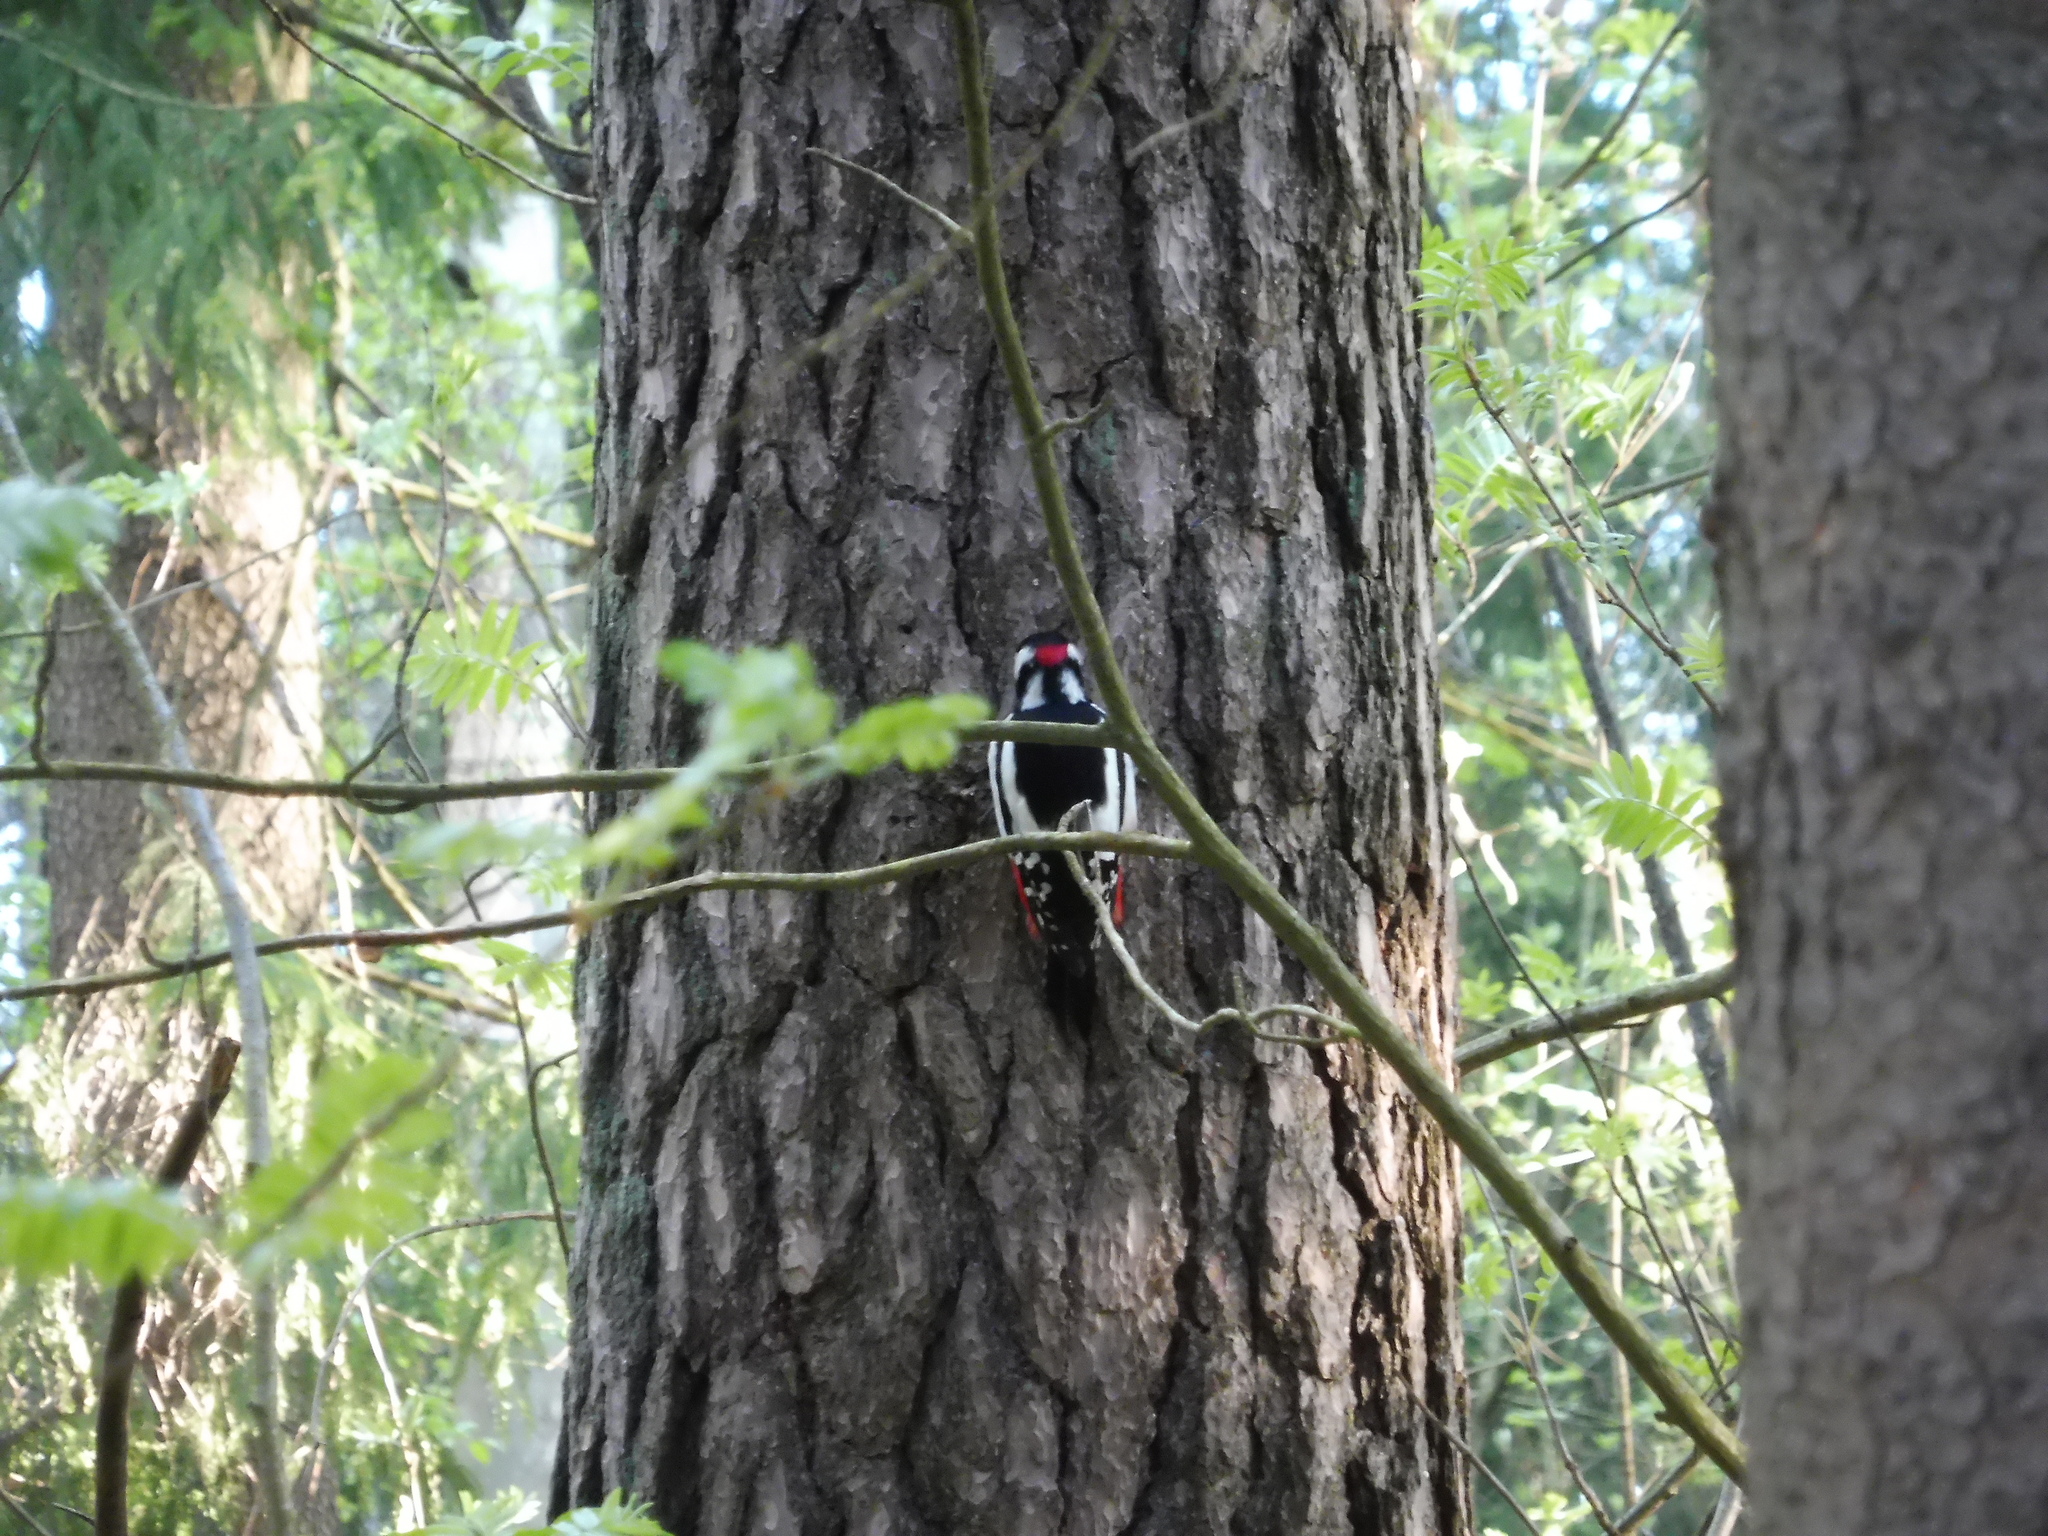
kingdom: Animalia
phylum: Chordata
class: Aves
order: Piciformes
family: Picidae
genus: Dendrocopos
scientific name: Dendrocopos major
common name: Great spotted woodpecker
